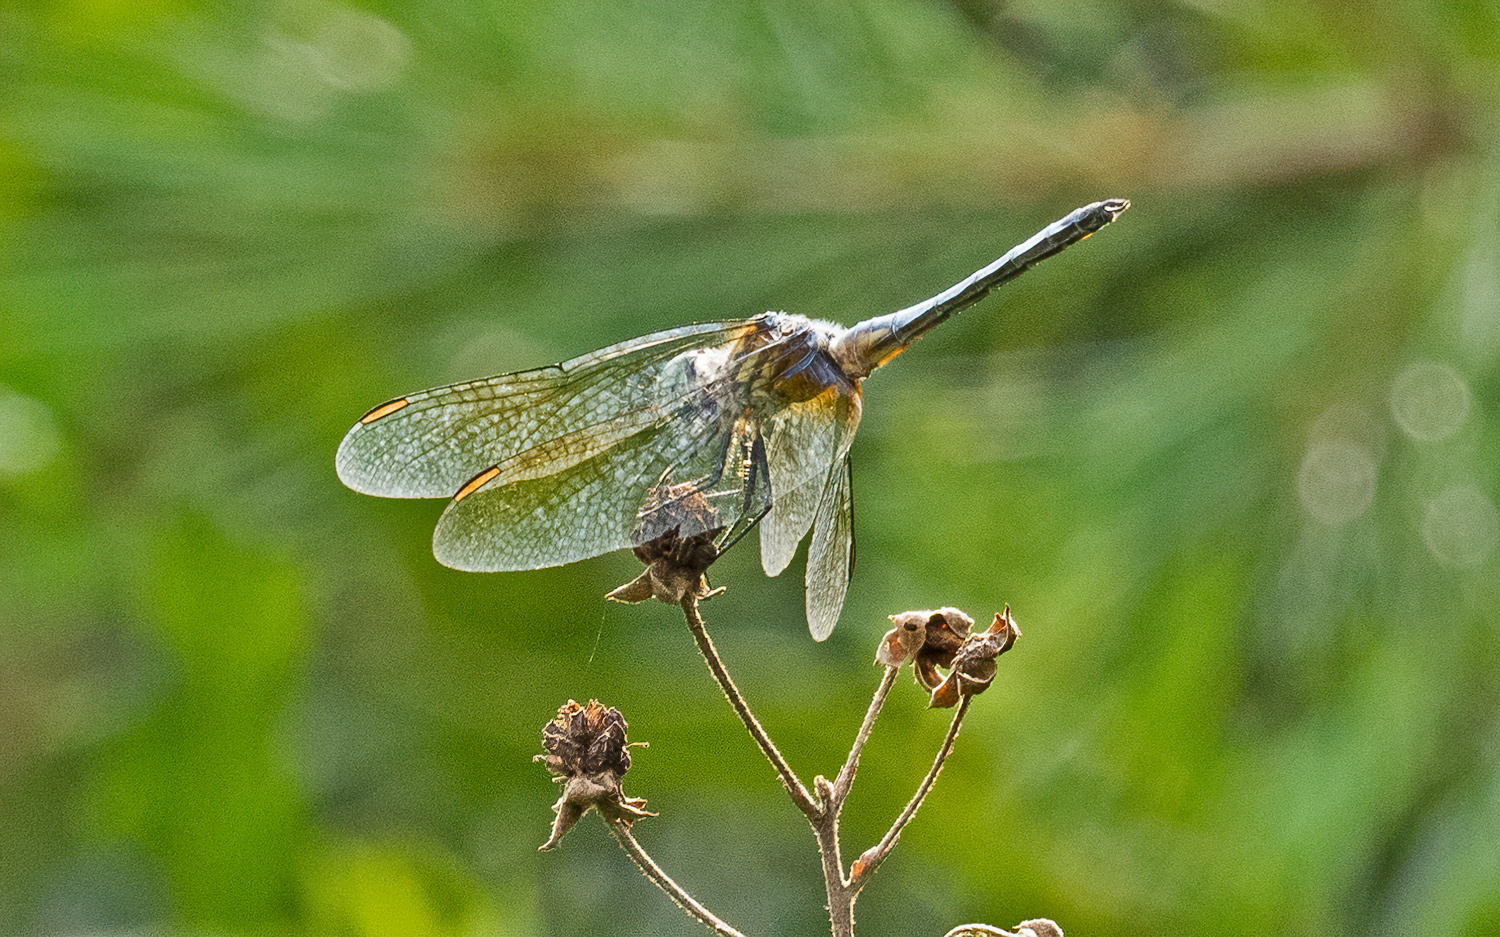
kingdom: Animalia
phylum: Arthropoda
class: Insecta
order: Odonata
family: Libellulidae
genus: Pachydiplax
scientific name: Pachydiplax longipennis
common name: Blue dasher
